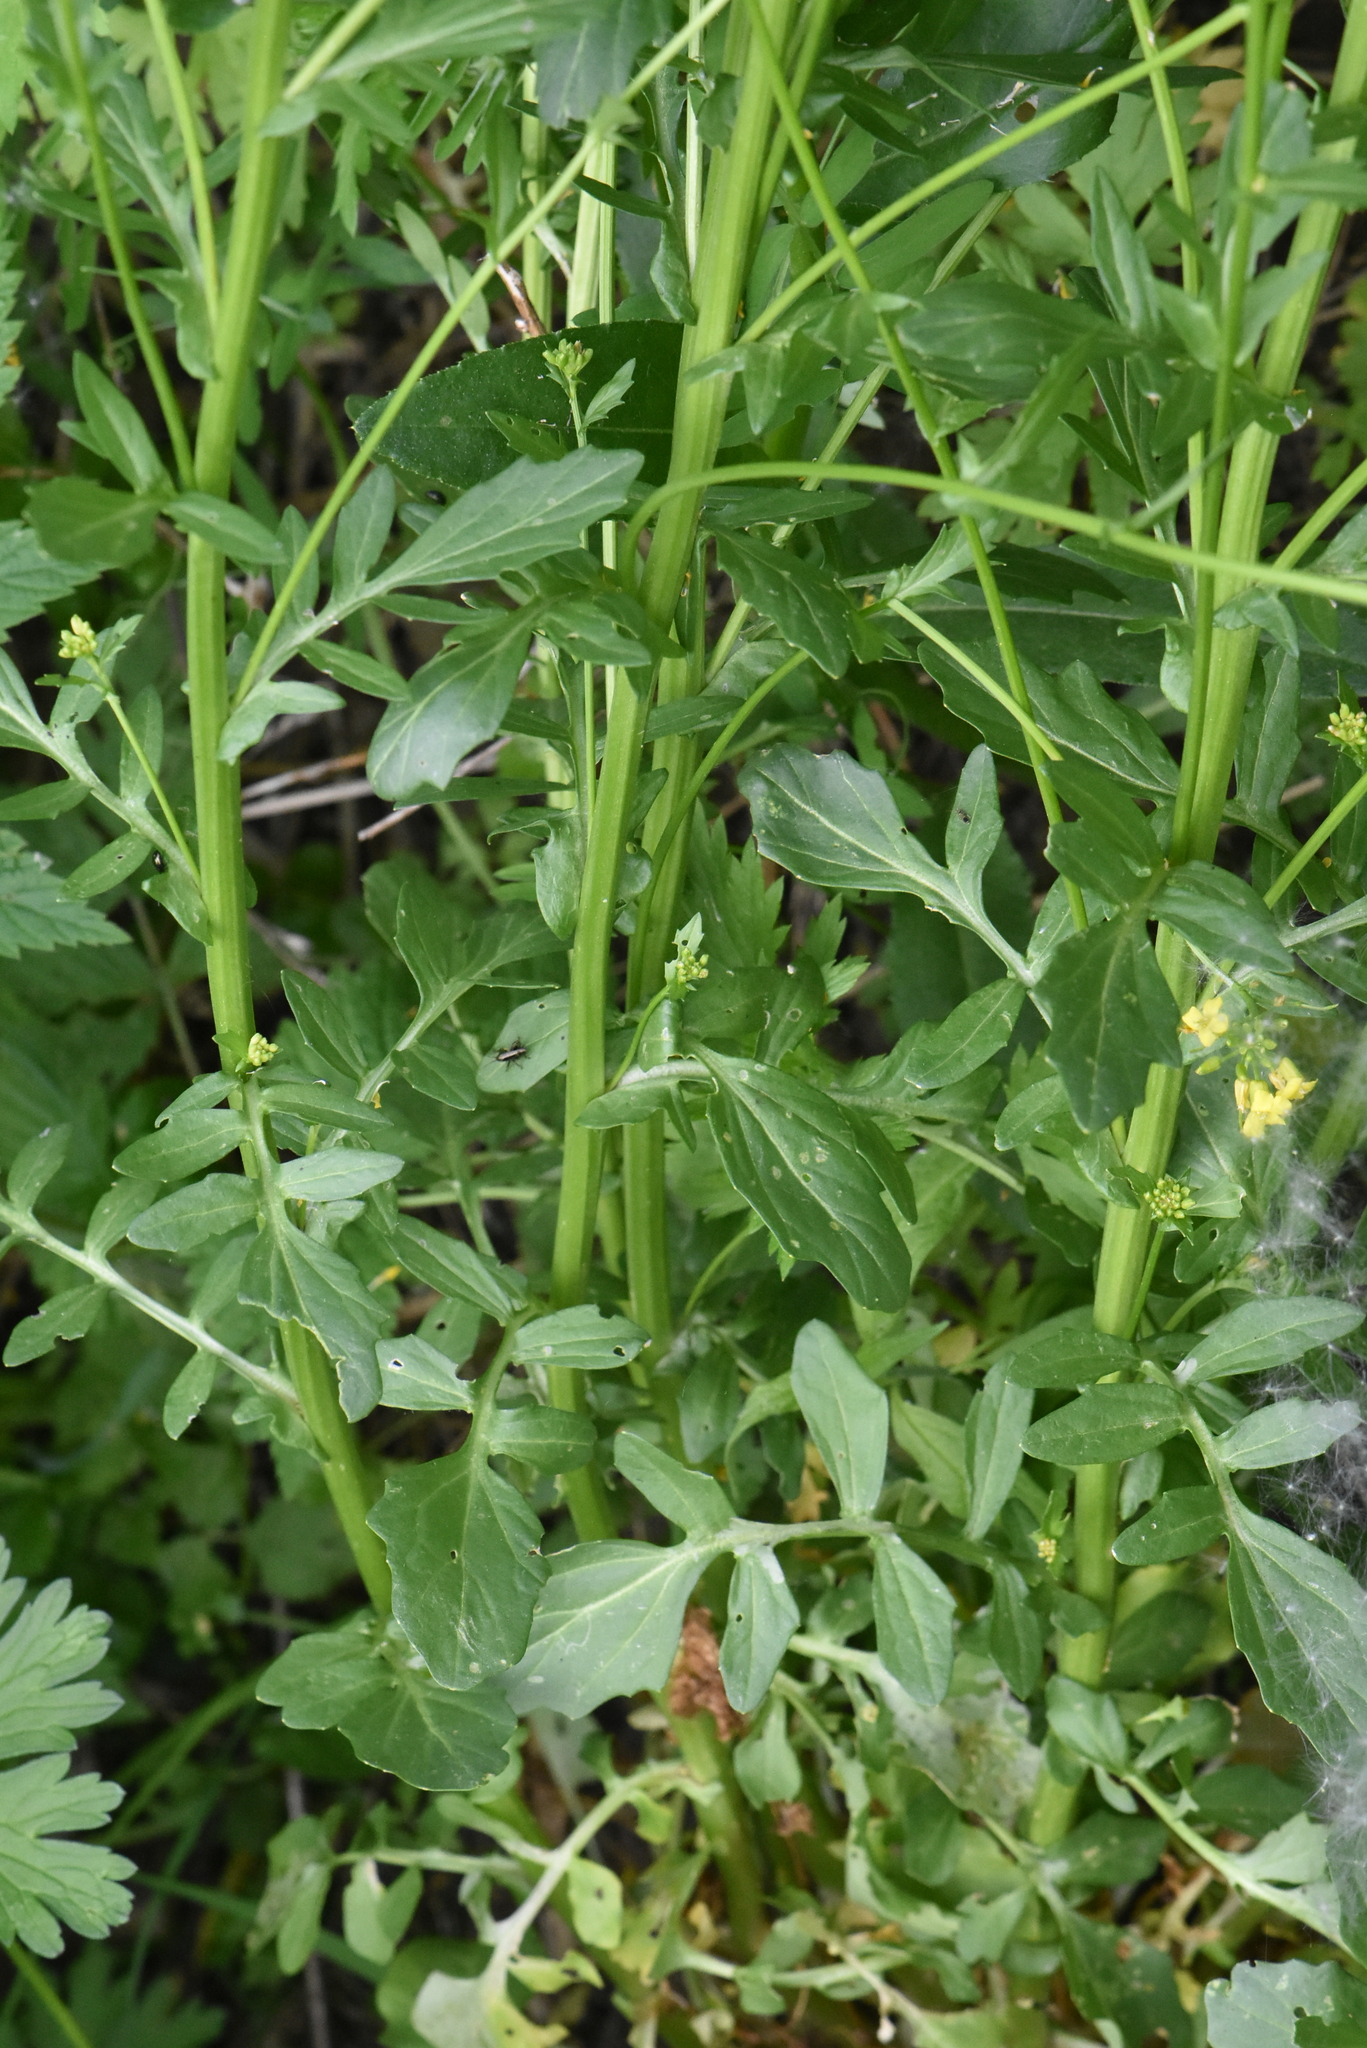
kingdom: Plantae
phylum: Tracheophyta
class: Magnoliopsida
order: Brassicales
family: Brassicaceae
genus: Barbarea
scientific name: Barbarea vulgaris
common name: Cressy-greens
